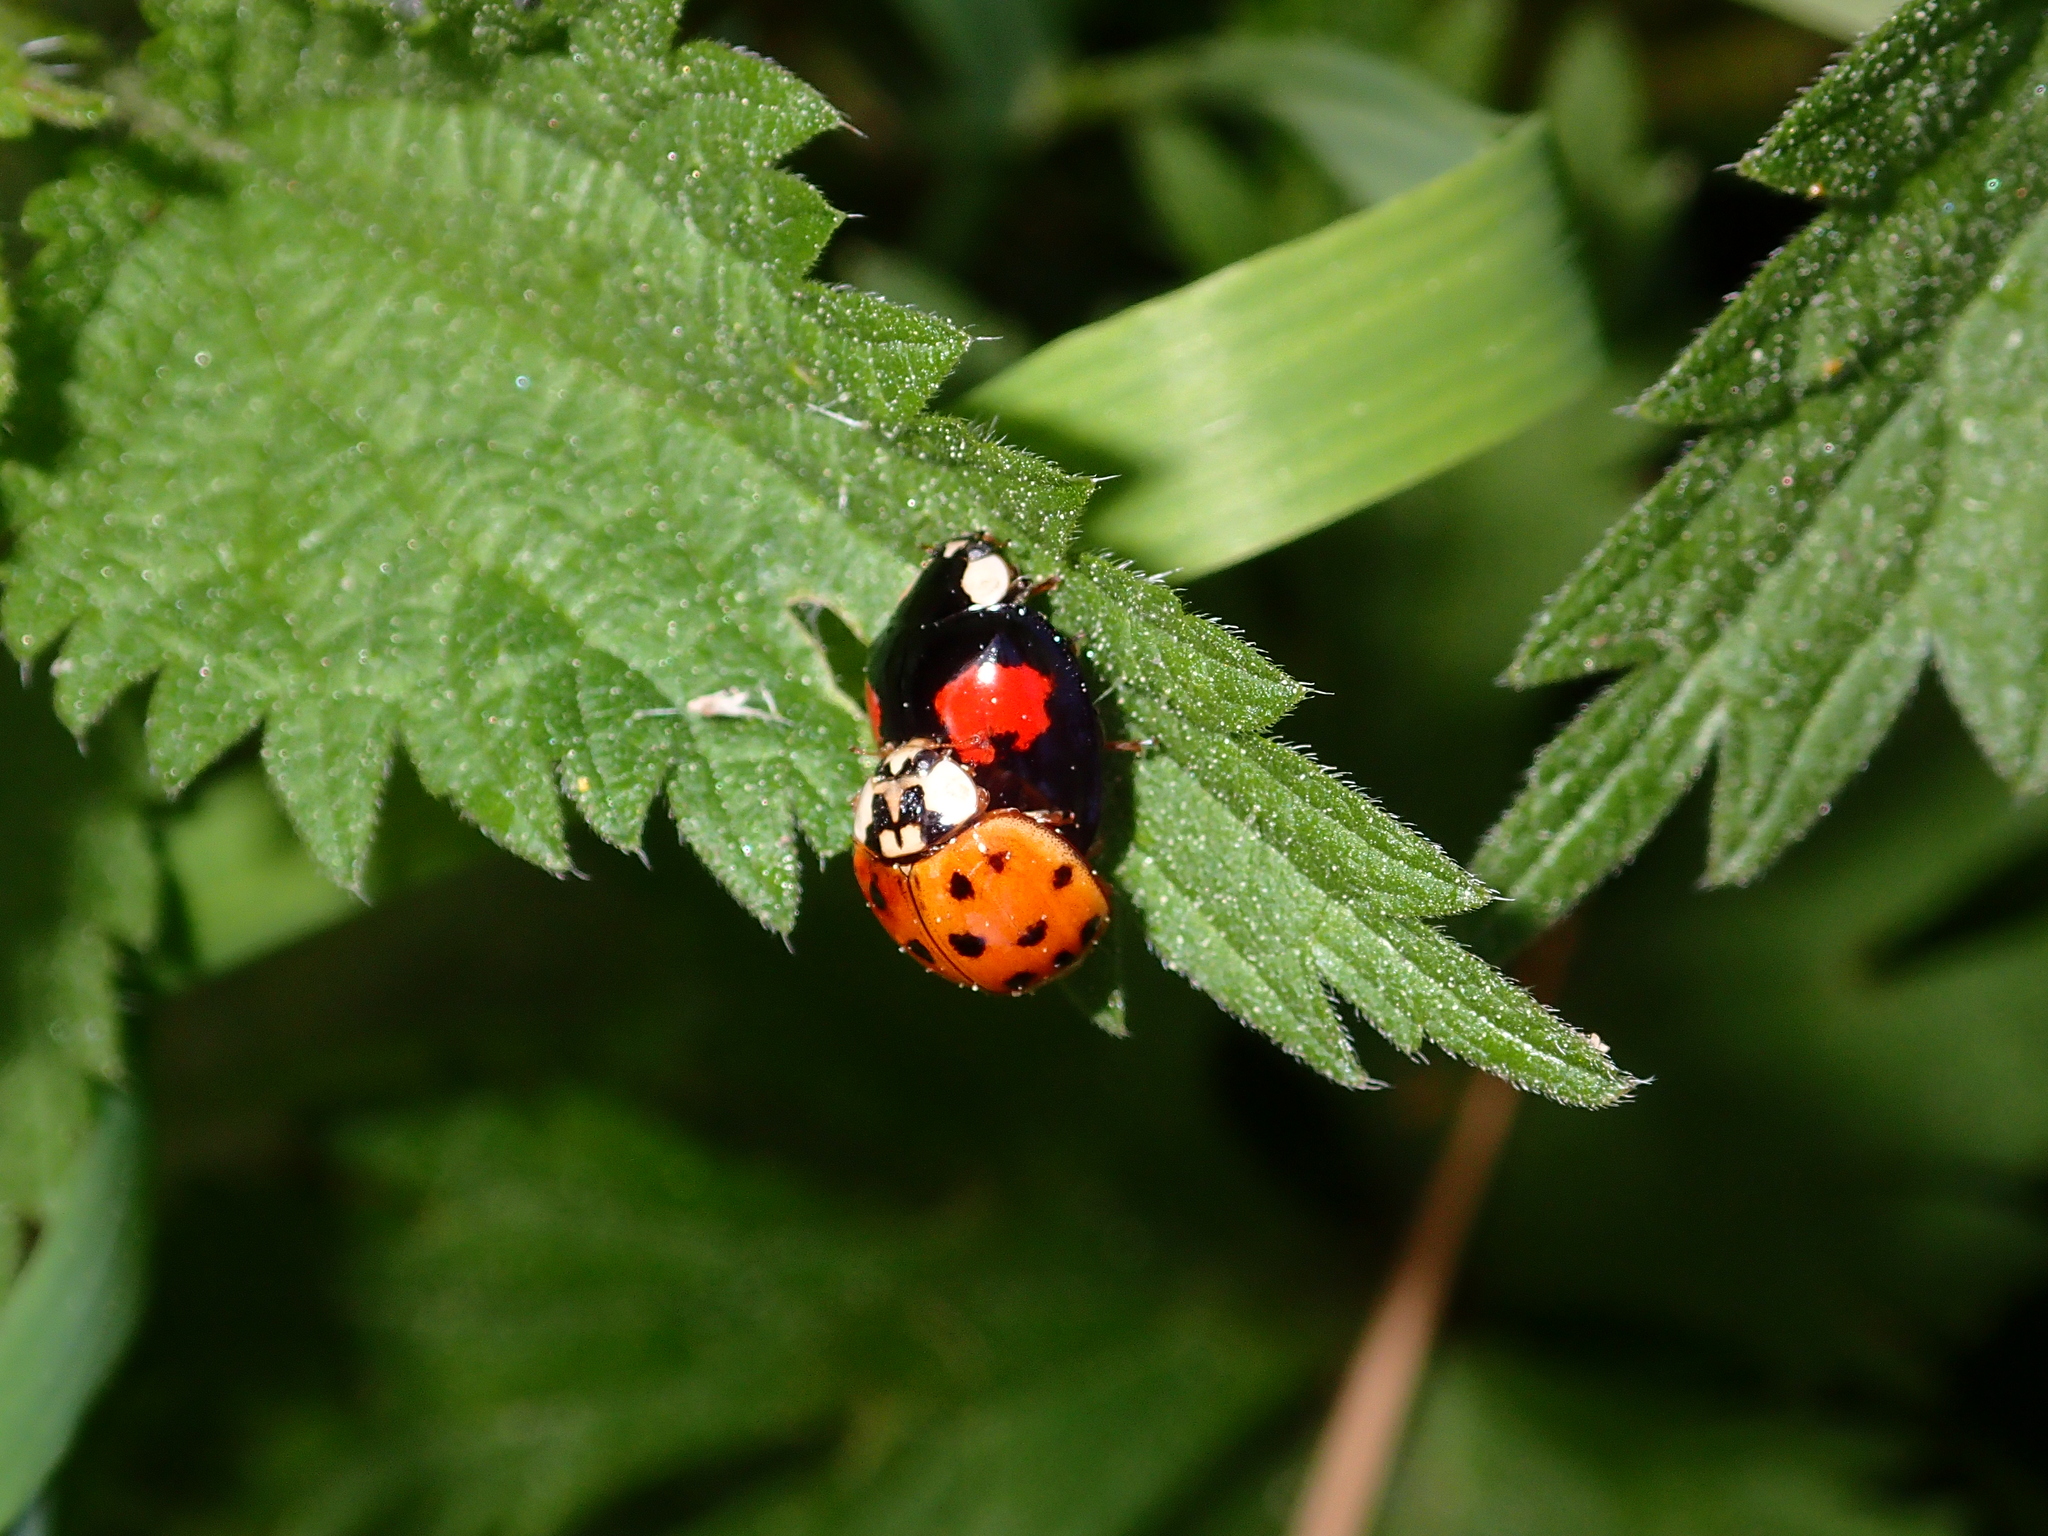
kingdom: Animalia
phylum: Arthropoda
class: Insecta
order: Coleoptera
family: Coccinellidae
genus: Harmonia
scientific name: Harmonia axyridis
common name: Harlequin ladybird
